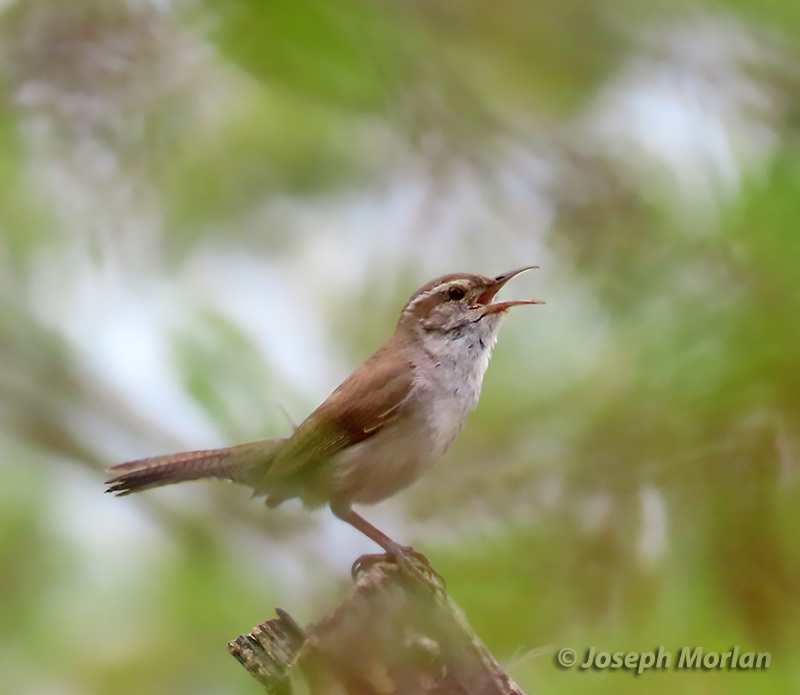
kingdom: Animalia
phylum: Chordata
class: Aves
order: Passeriformes
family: Troglodytidae
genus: Thryomanes
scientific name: Thryomanes bewickii
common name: Bewick's wren
